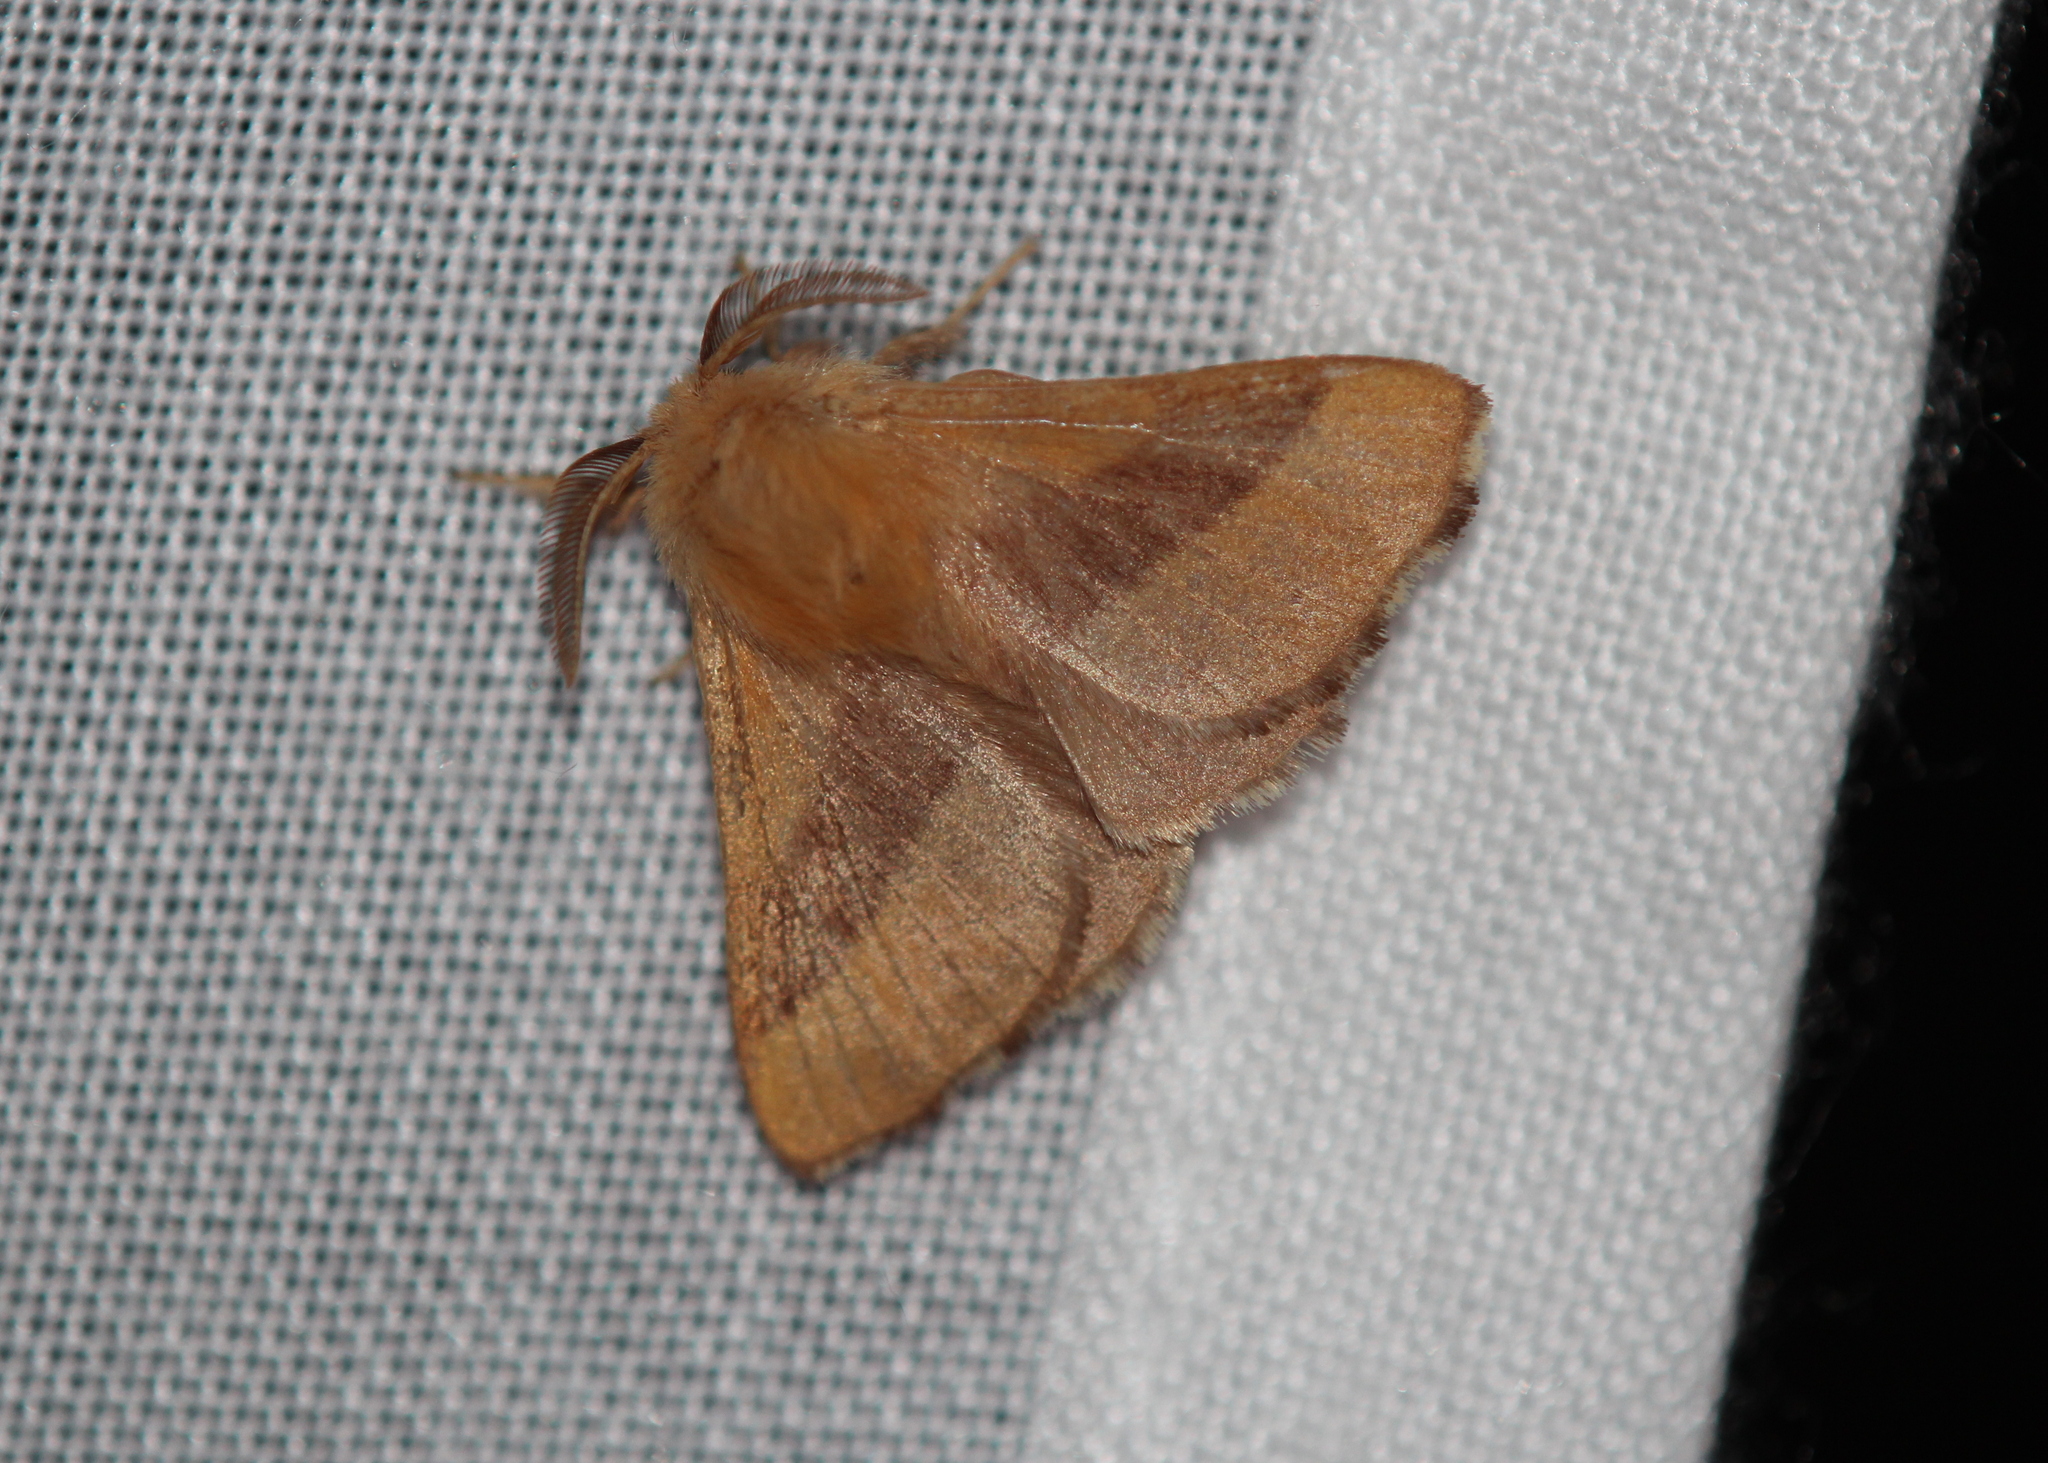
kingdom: Animalia
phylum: Arthropoda
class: Insecta
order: Lepidoptera
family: Lasiocampidae
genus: Malacosoma
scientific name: Malacosoma disstria
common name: Forest tent caterpillar
